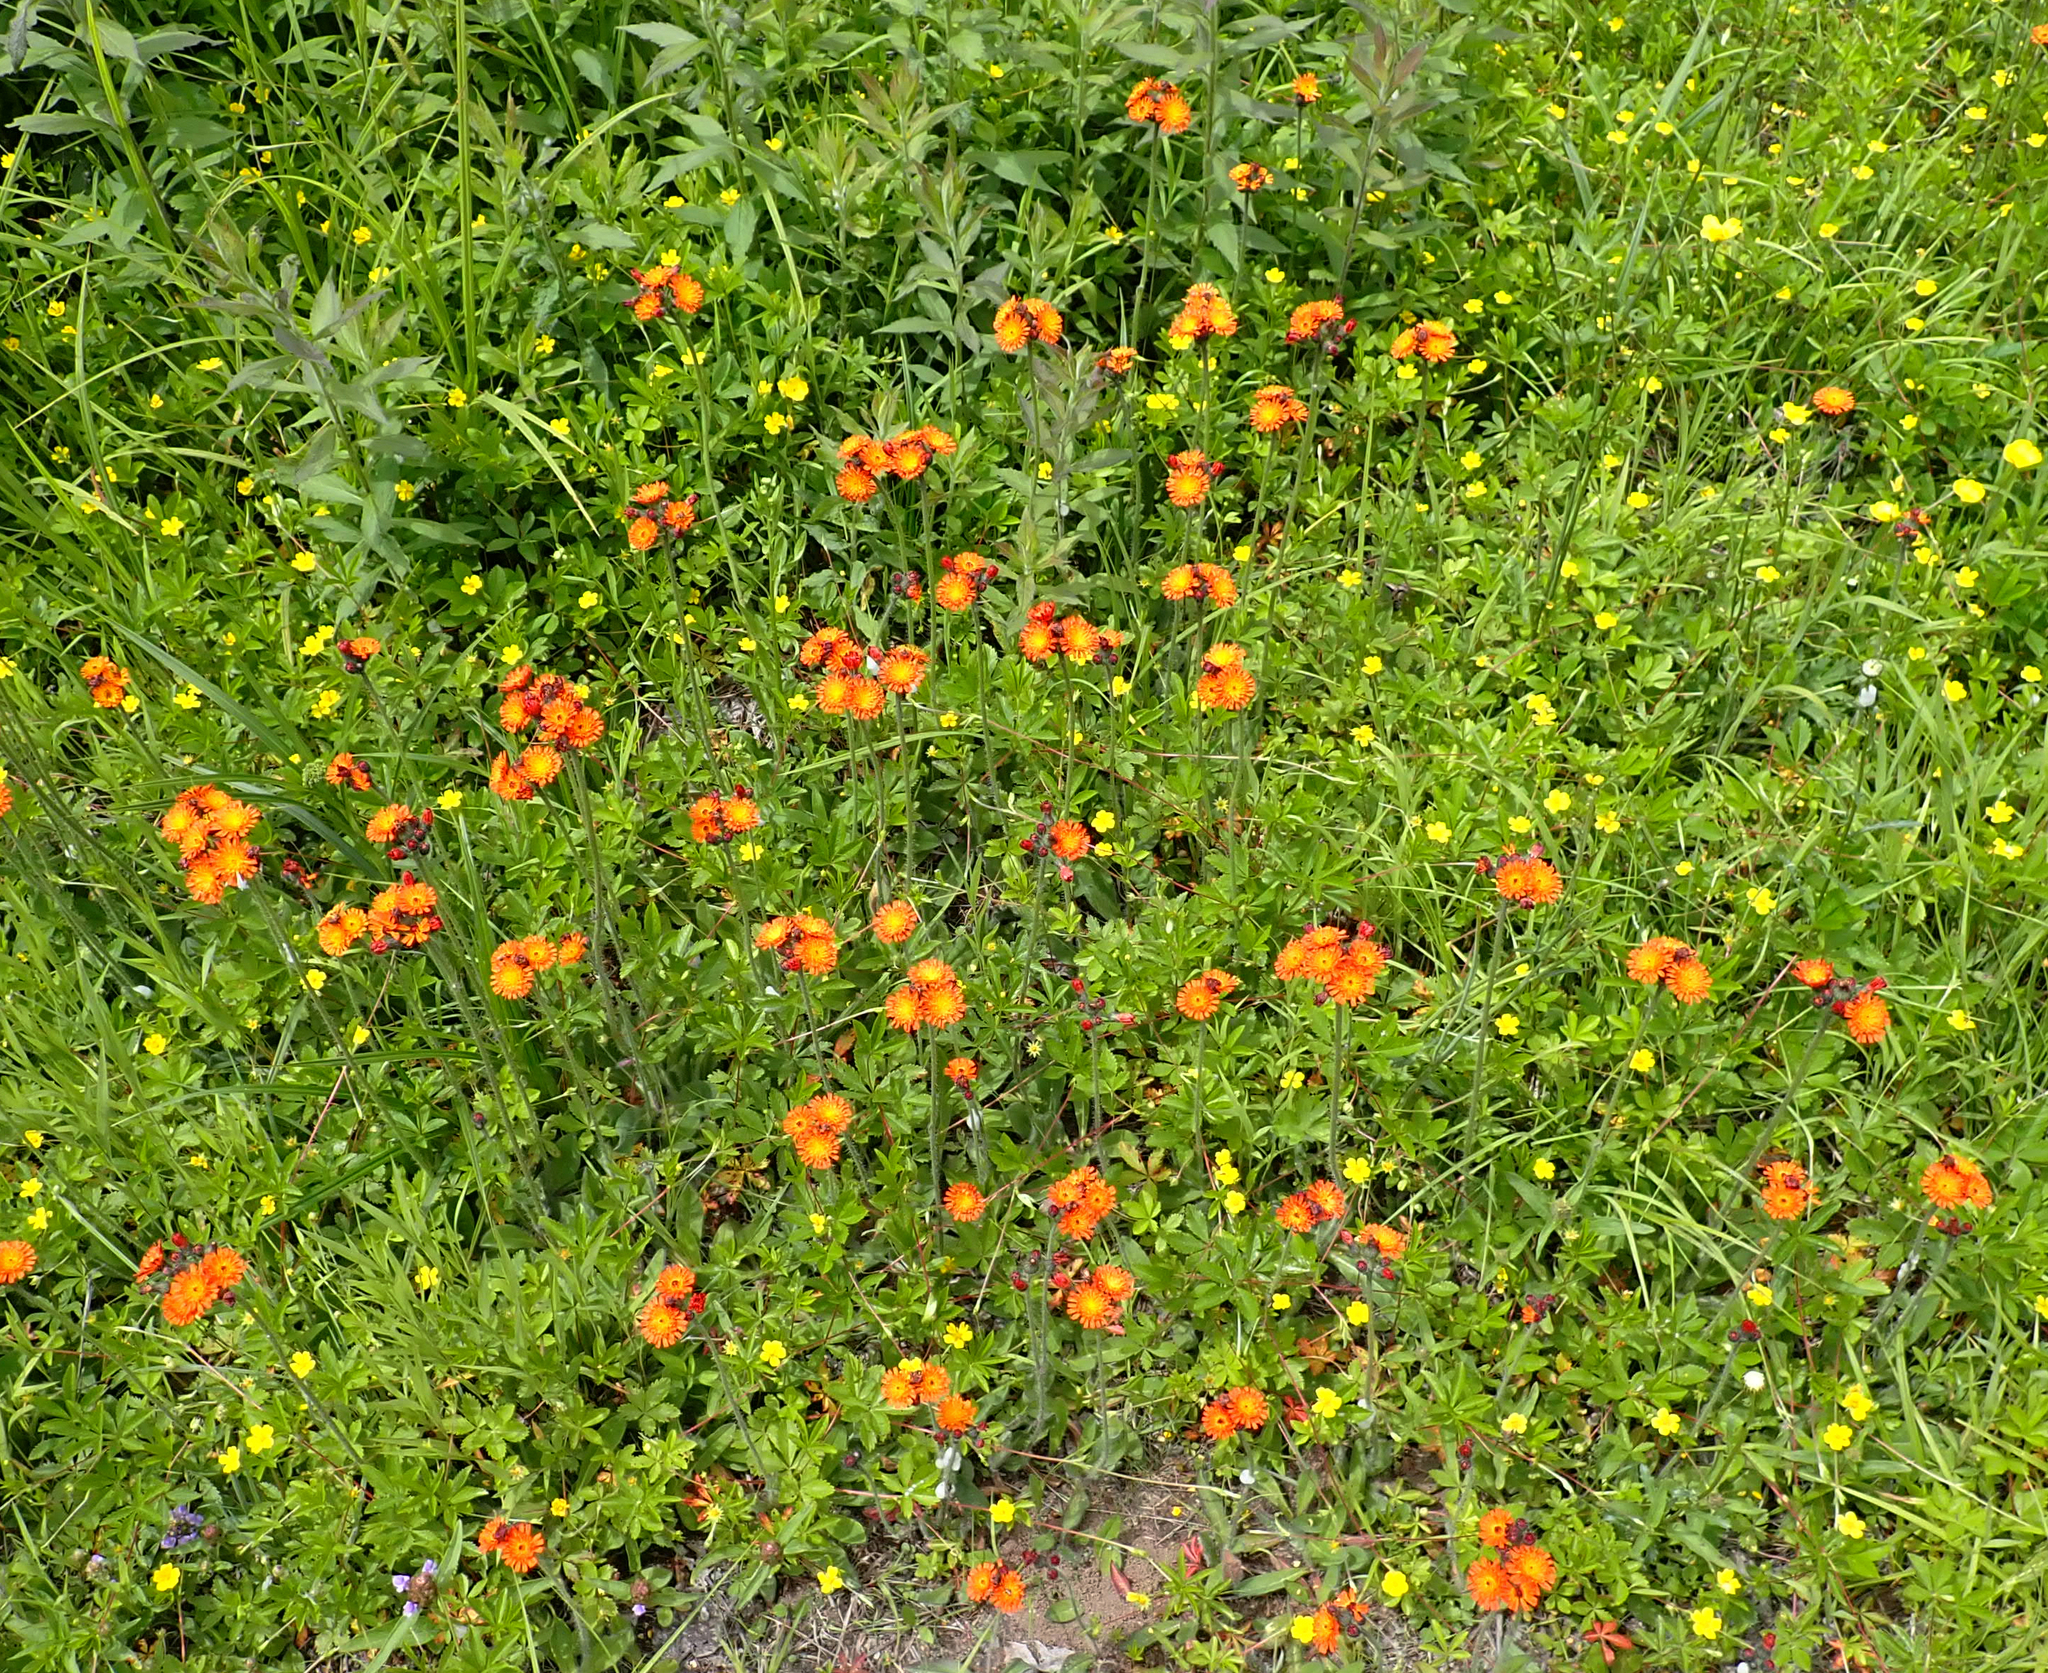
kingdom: Plantae
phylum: Tracheophyta
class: Magnoliopsida
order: Asterales
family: Asteraceae
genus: Pilosella
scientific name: Pilosella aurantiaca
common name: Fox-and-cubs
